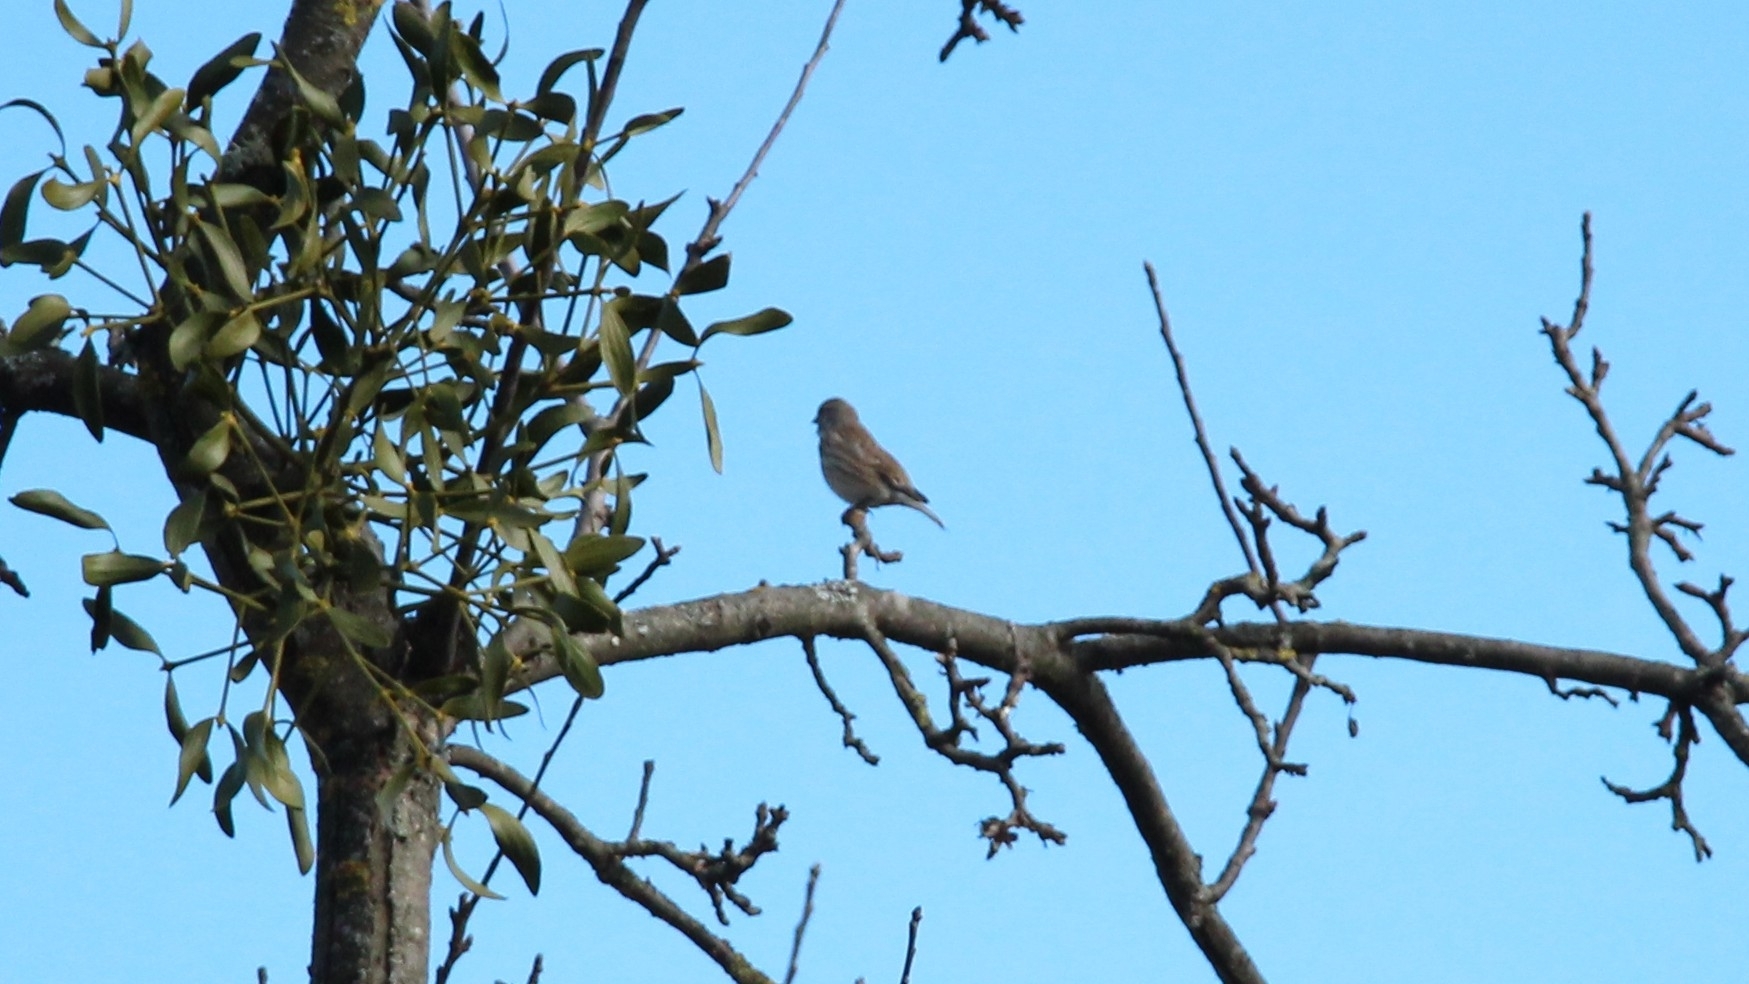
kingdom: Animalia
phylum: Chordata
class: Aves
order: Passeriformes
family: Fringillidae
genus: Linaria
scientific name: Linaria cannabina
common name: Common linnet
